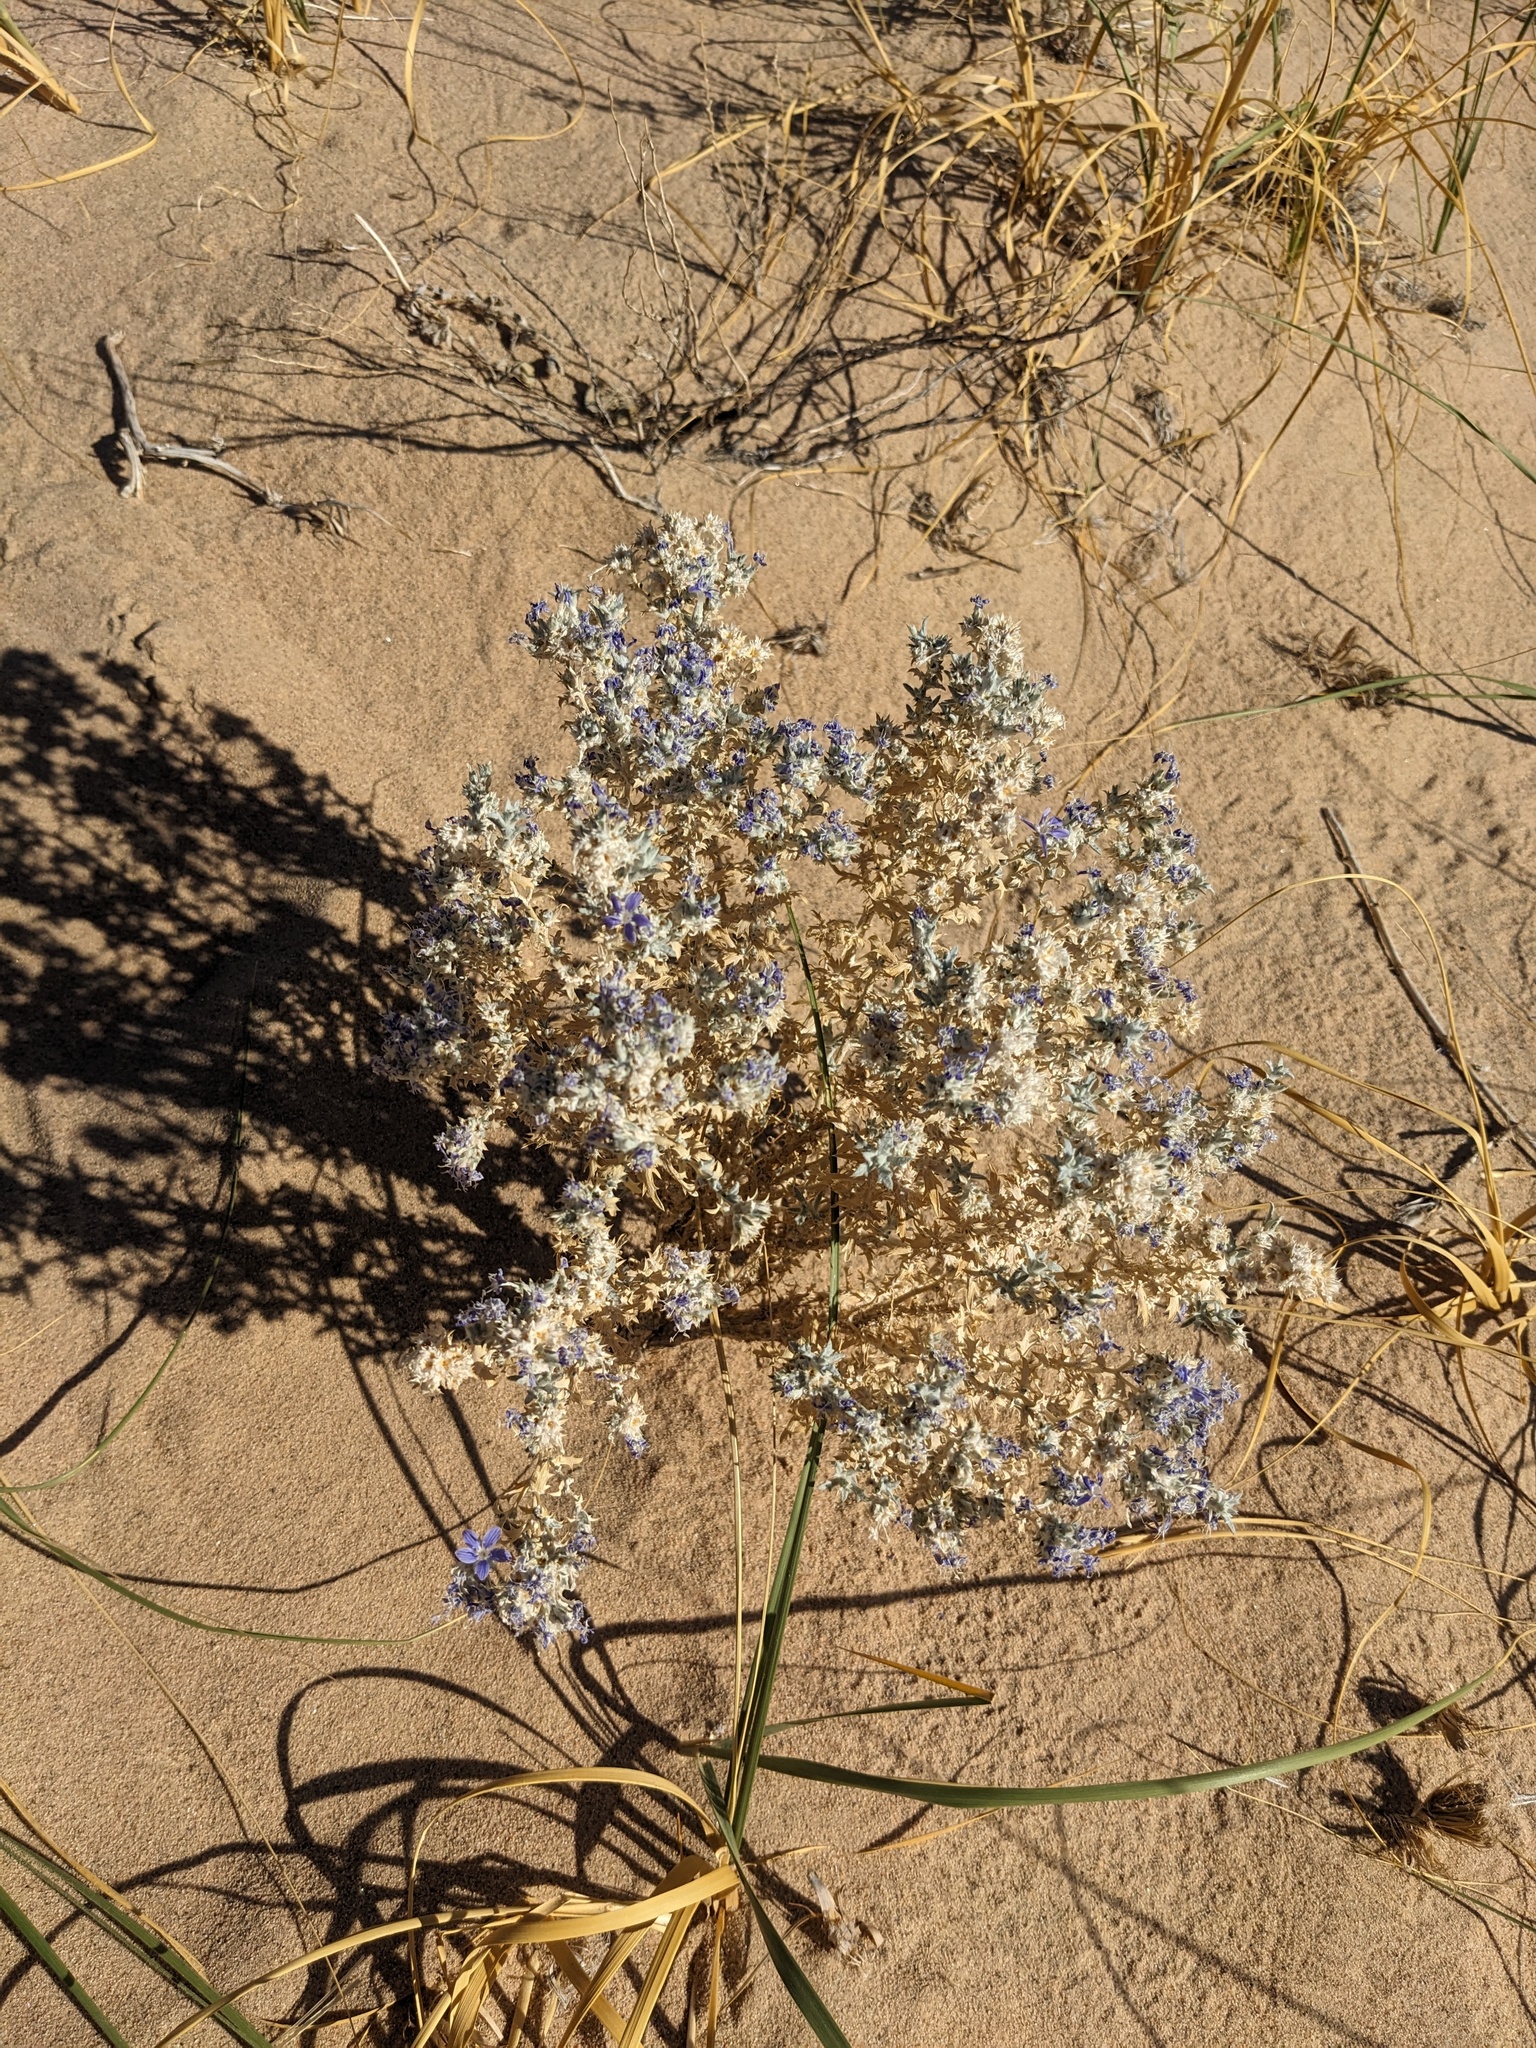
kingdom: Plantae
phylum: Tracheophyta
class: Magnoliopsida
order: Ericales
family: Polemoniaceae
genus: Eriastrum
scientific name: Eriastrum densifolium
